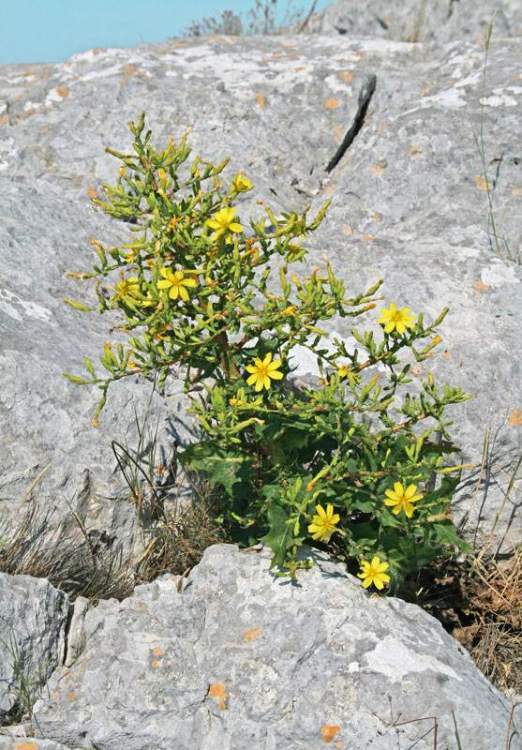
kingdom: Plantae
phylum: Tracheophyta
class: Magnoliopsida
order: Asterales
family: Asteraceae
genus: Lactuca
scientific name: Lactuca longidentata
